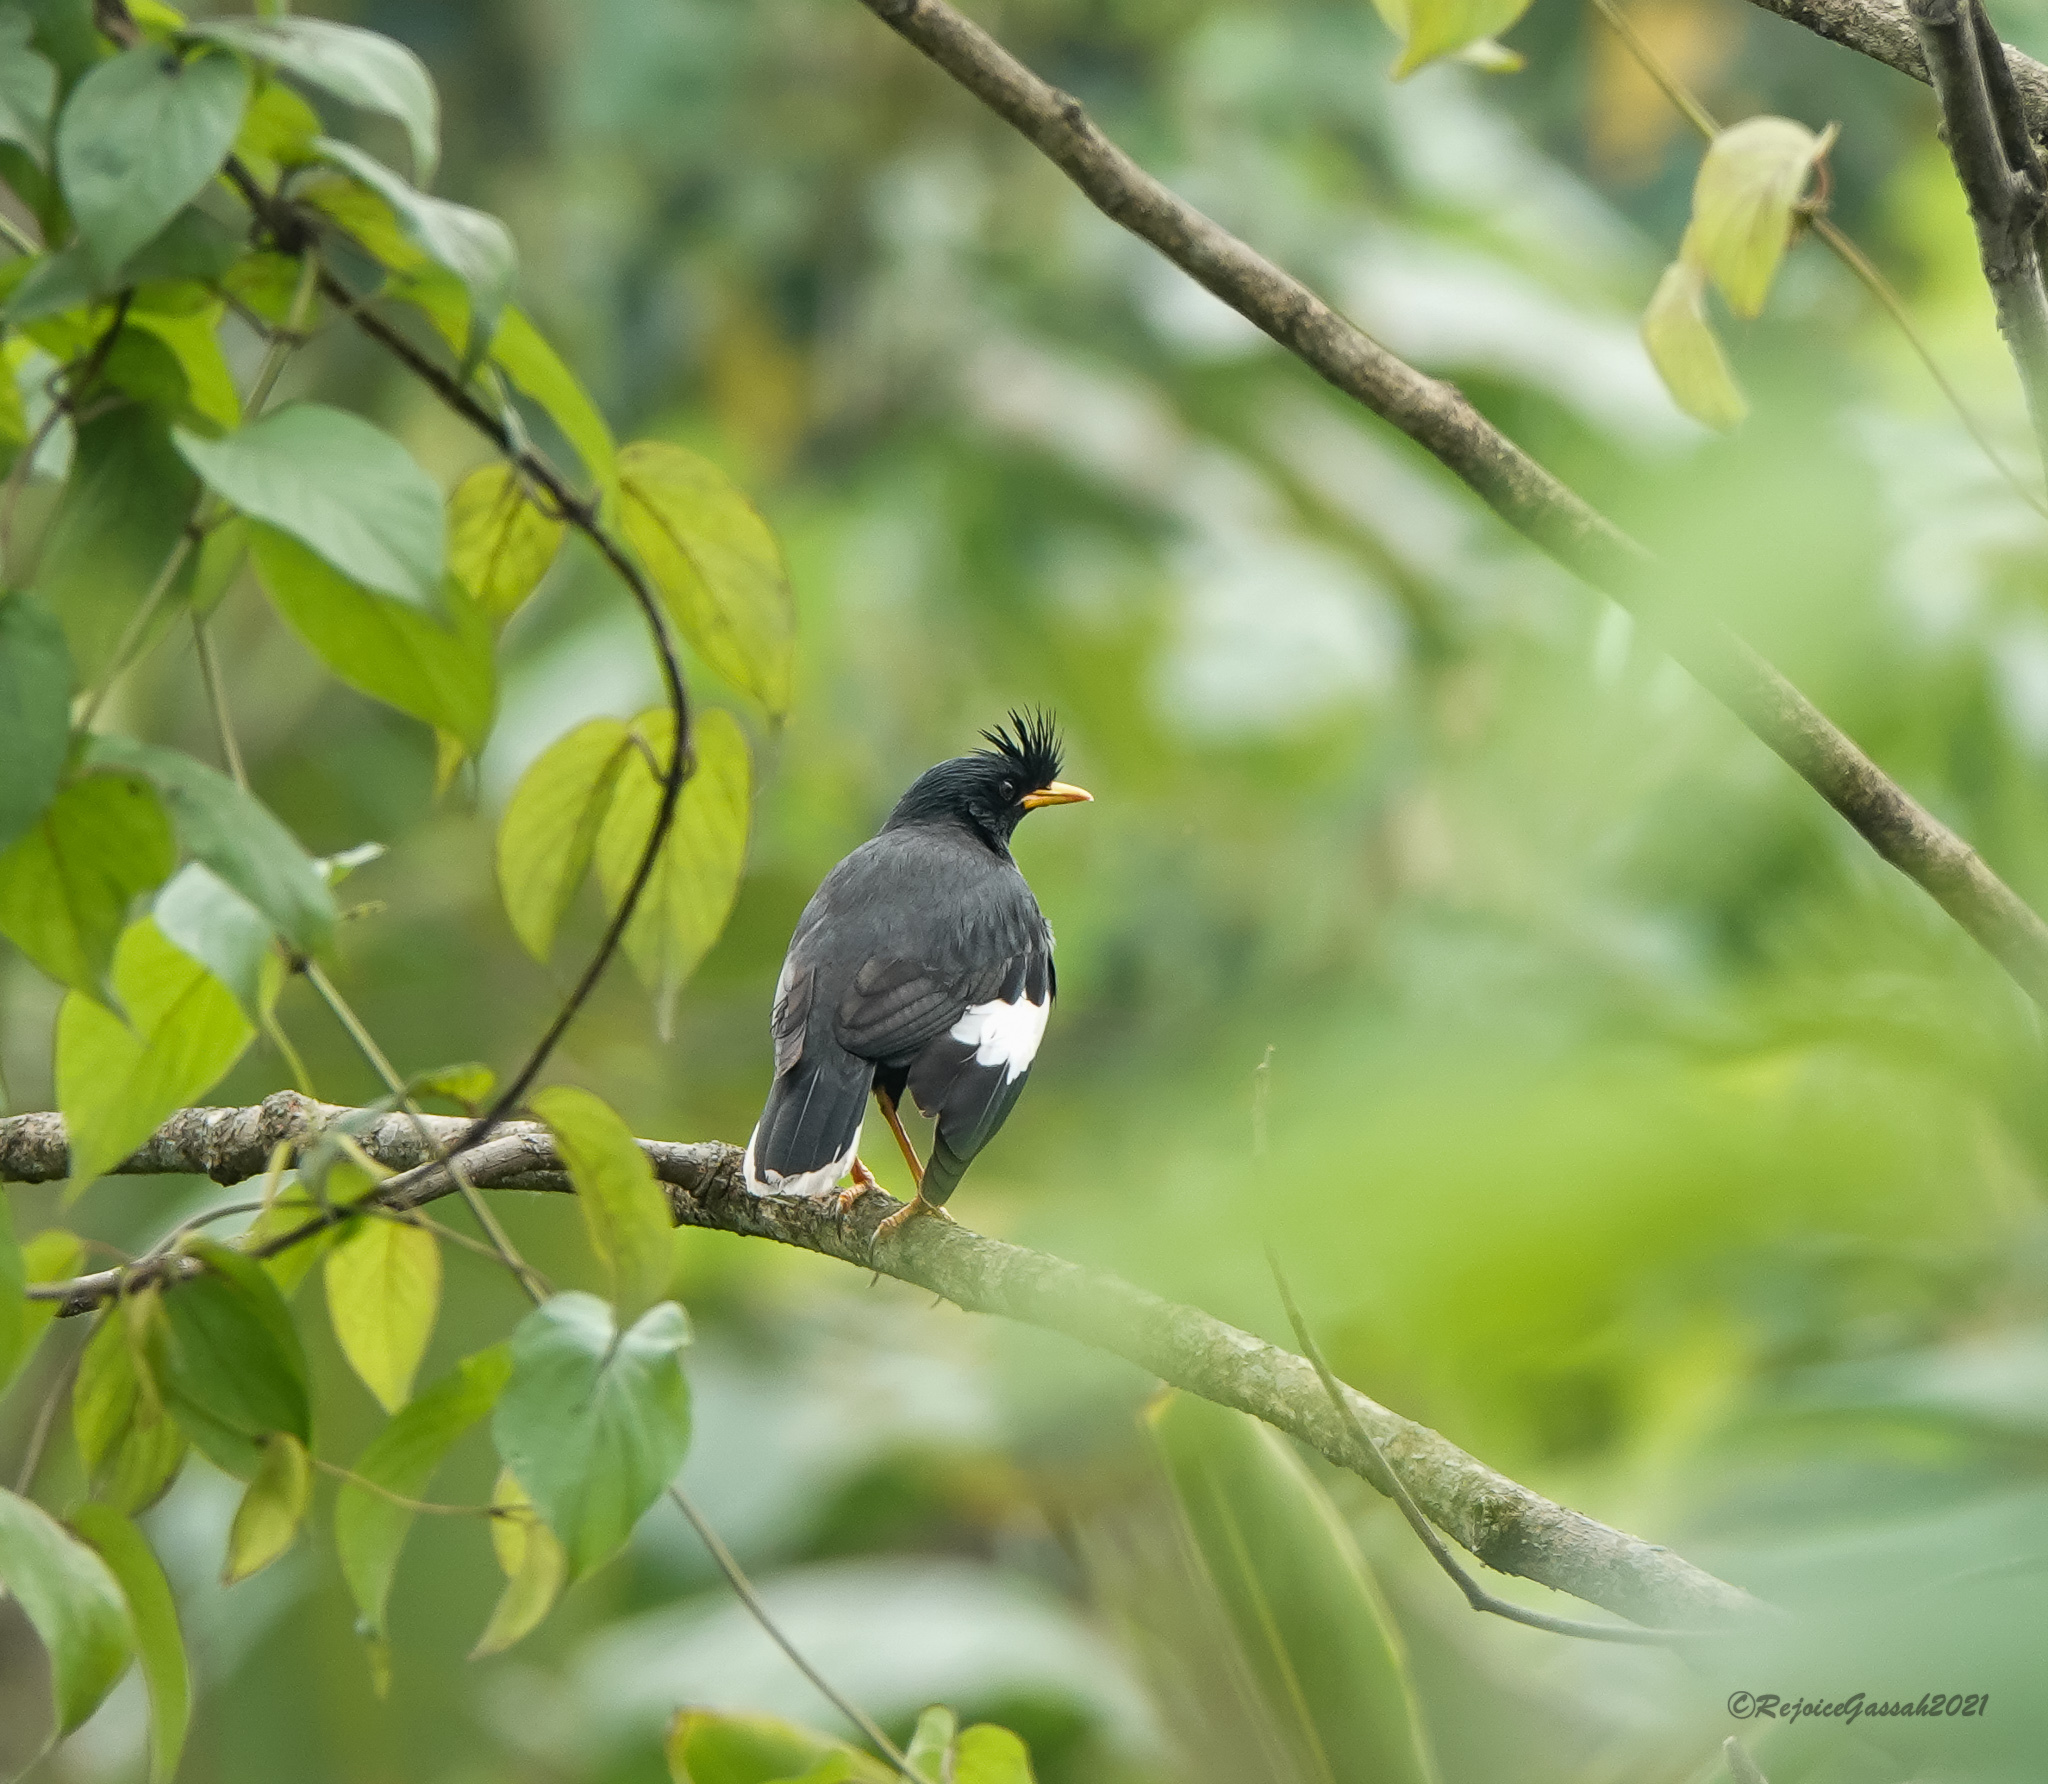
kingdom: Animalia
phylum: Chordata
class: Aves
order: Passeriformes
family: Sturnidae
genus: Acridotheres
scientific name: Acridotheres grandis
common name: Great myna
